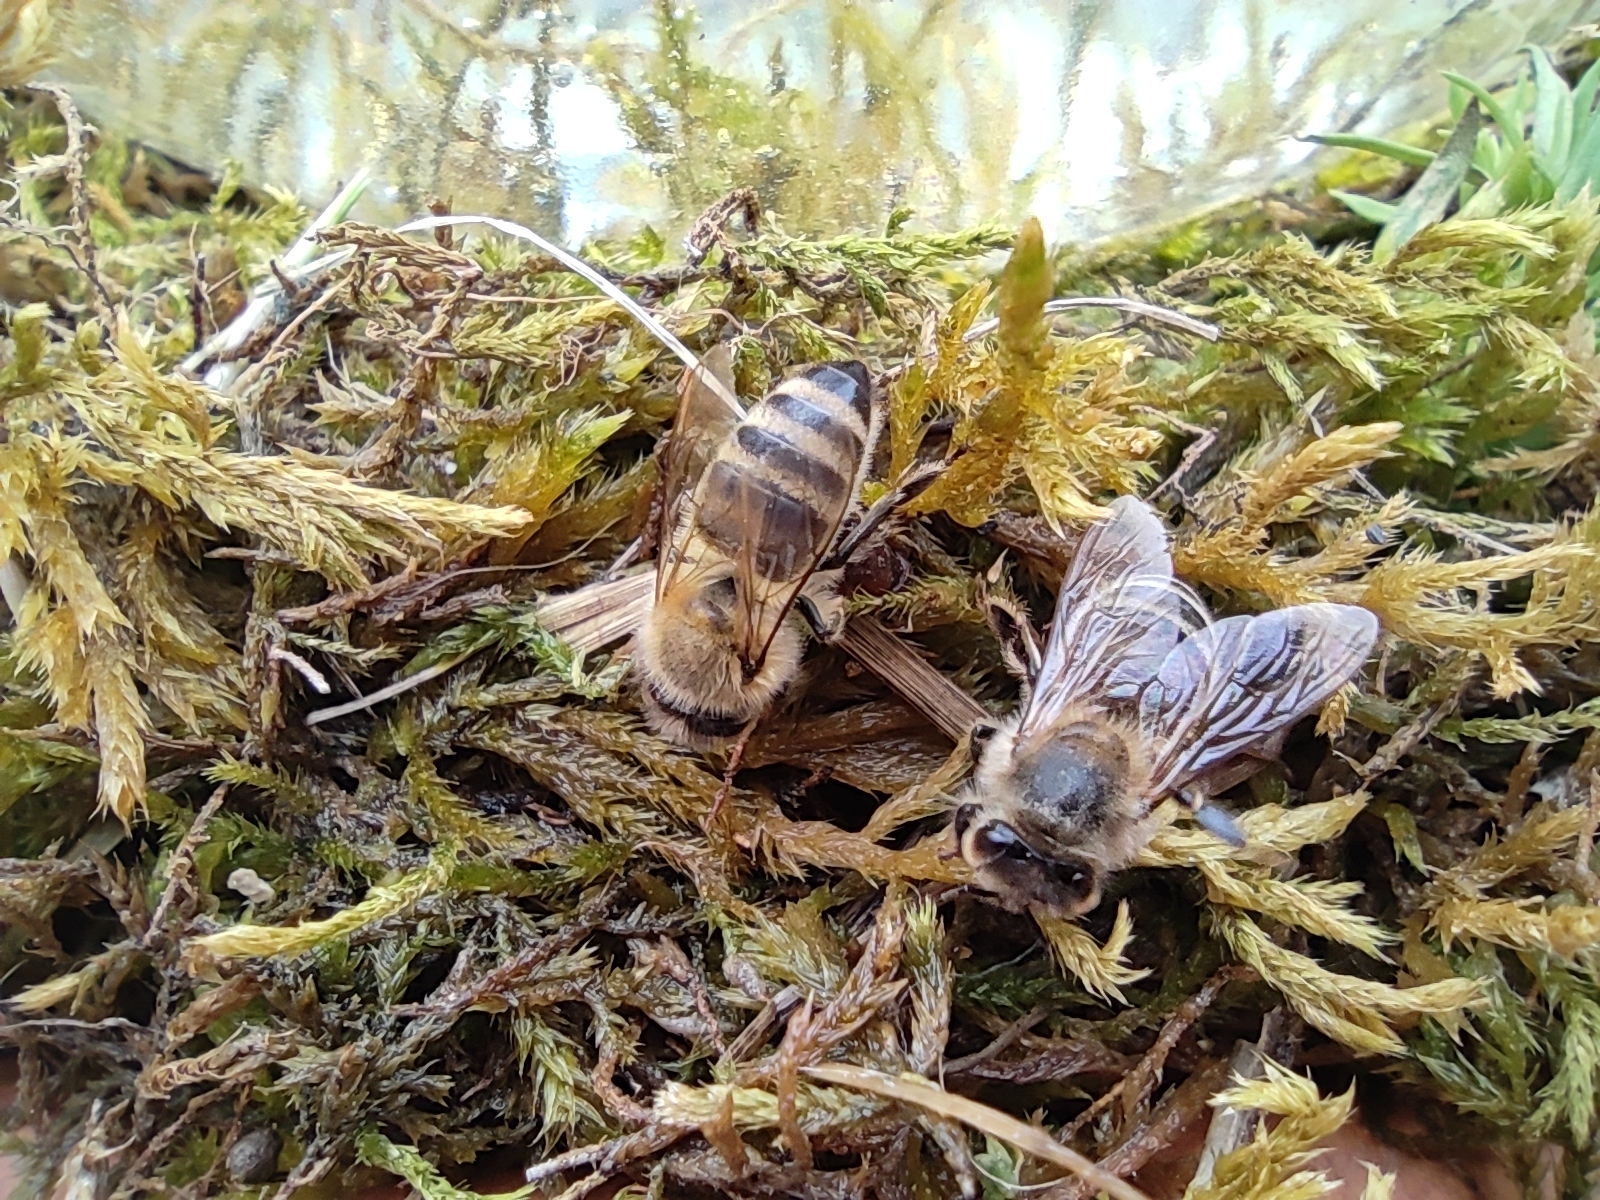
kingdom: Animalia
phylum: Arthropoda
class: Insecta
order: Hymenoptera
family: Apidae
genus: Apis
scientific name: Apis mellifera
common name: Honey bee
